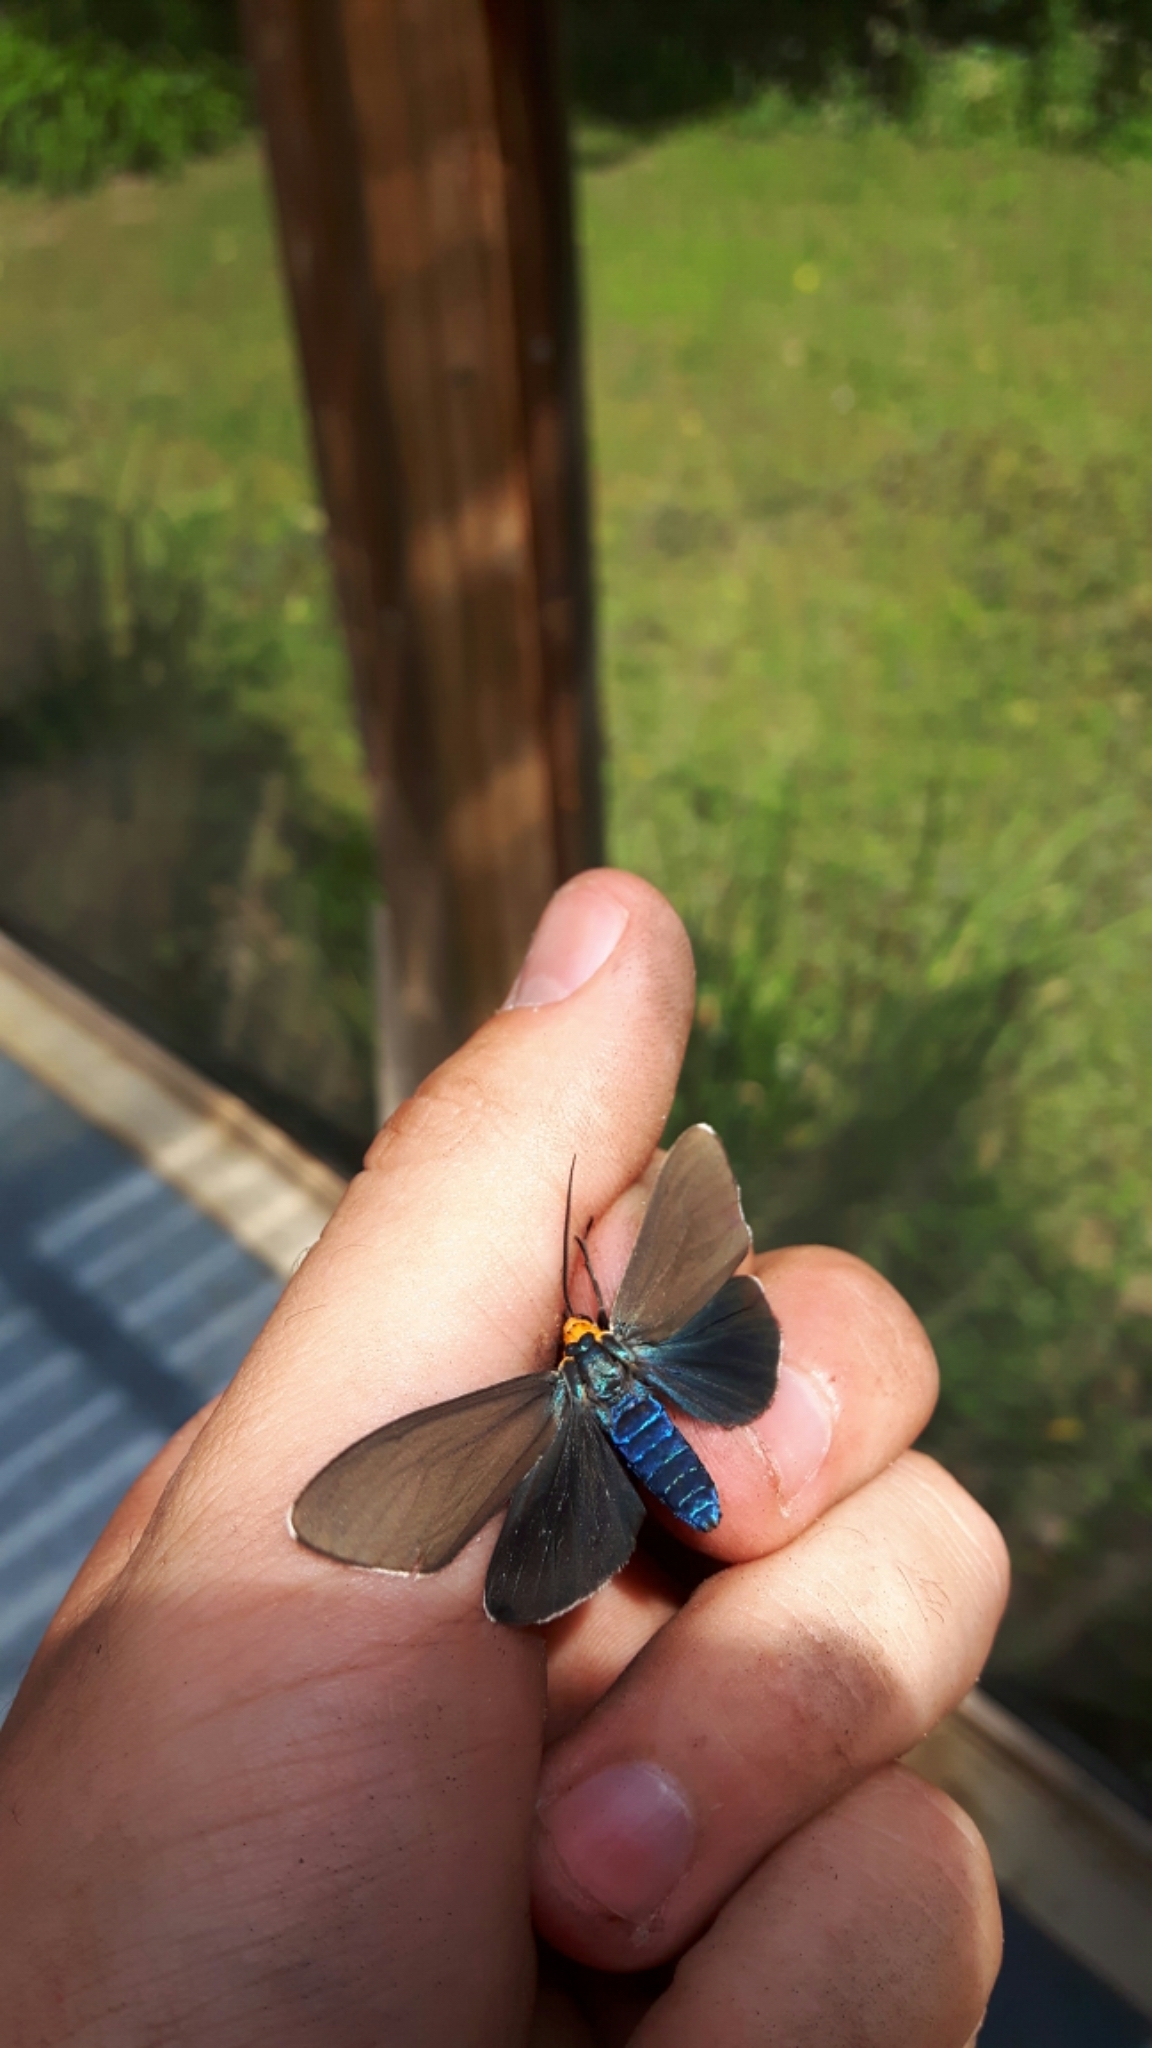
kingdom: Animalia
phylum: Arthropoda
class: Insecta
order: Lepidoptera
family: Erebidae
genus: Ctenucha
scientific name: Ctenucha virginica
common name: Virginia ctenucha moth
